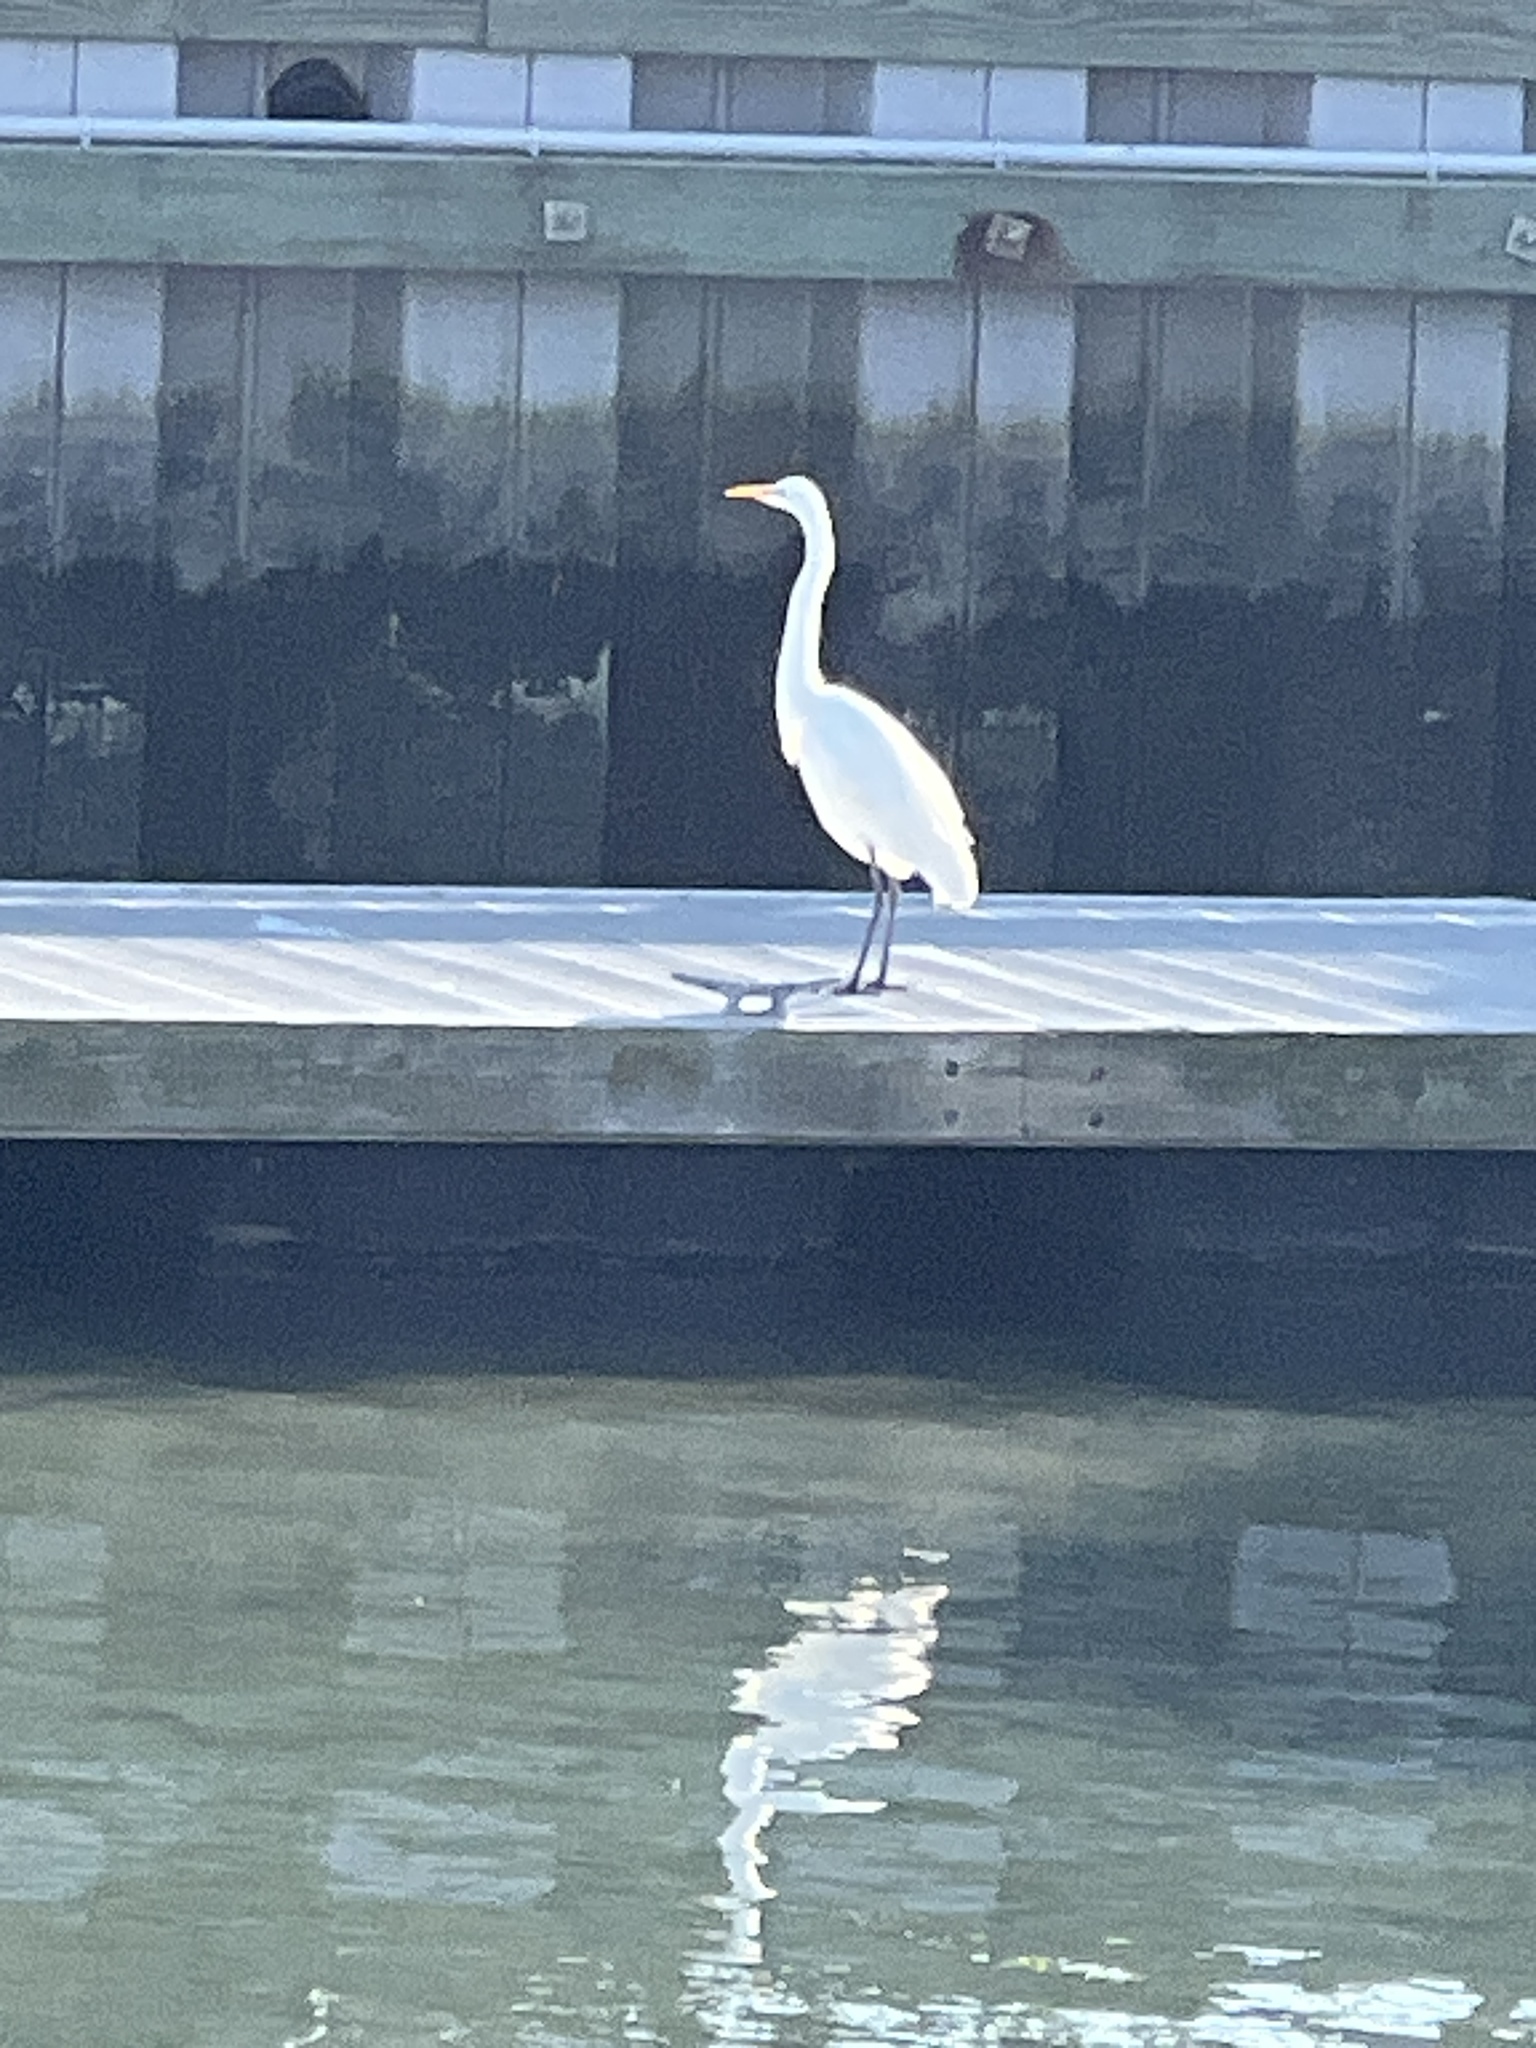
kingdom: Animalia
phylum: Chordata
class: Aves
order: Pelecaniformes
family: Ardeidae
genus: Ardea
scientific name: Ardea alba
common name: Great egret
